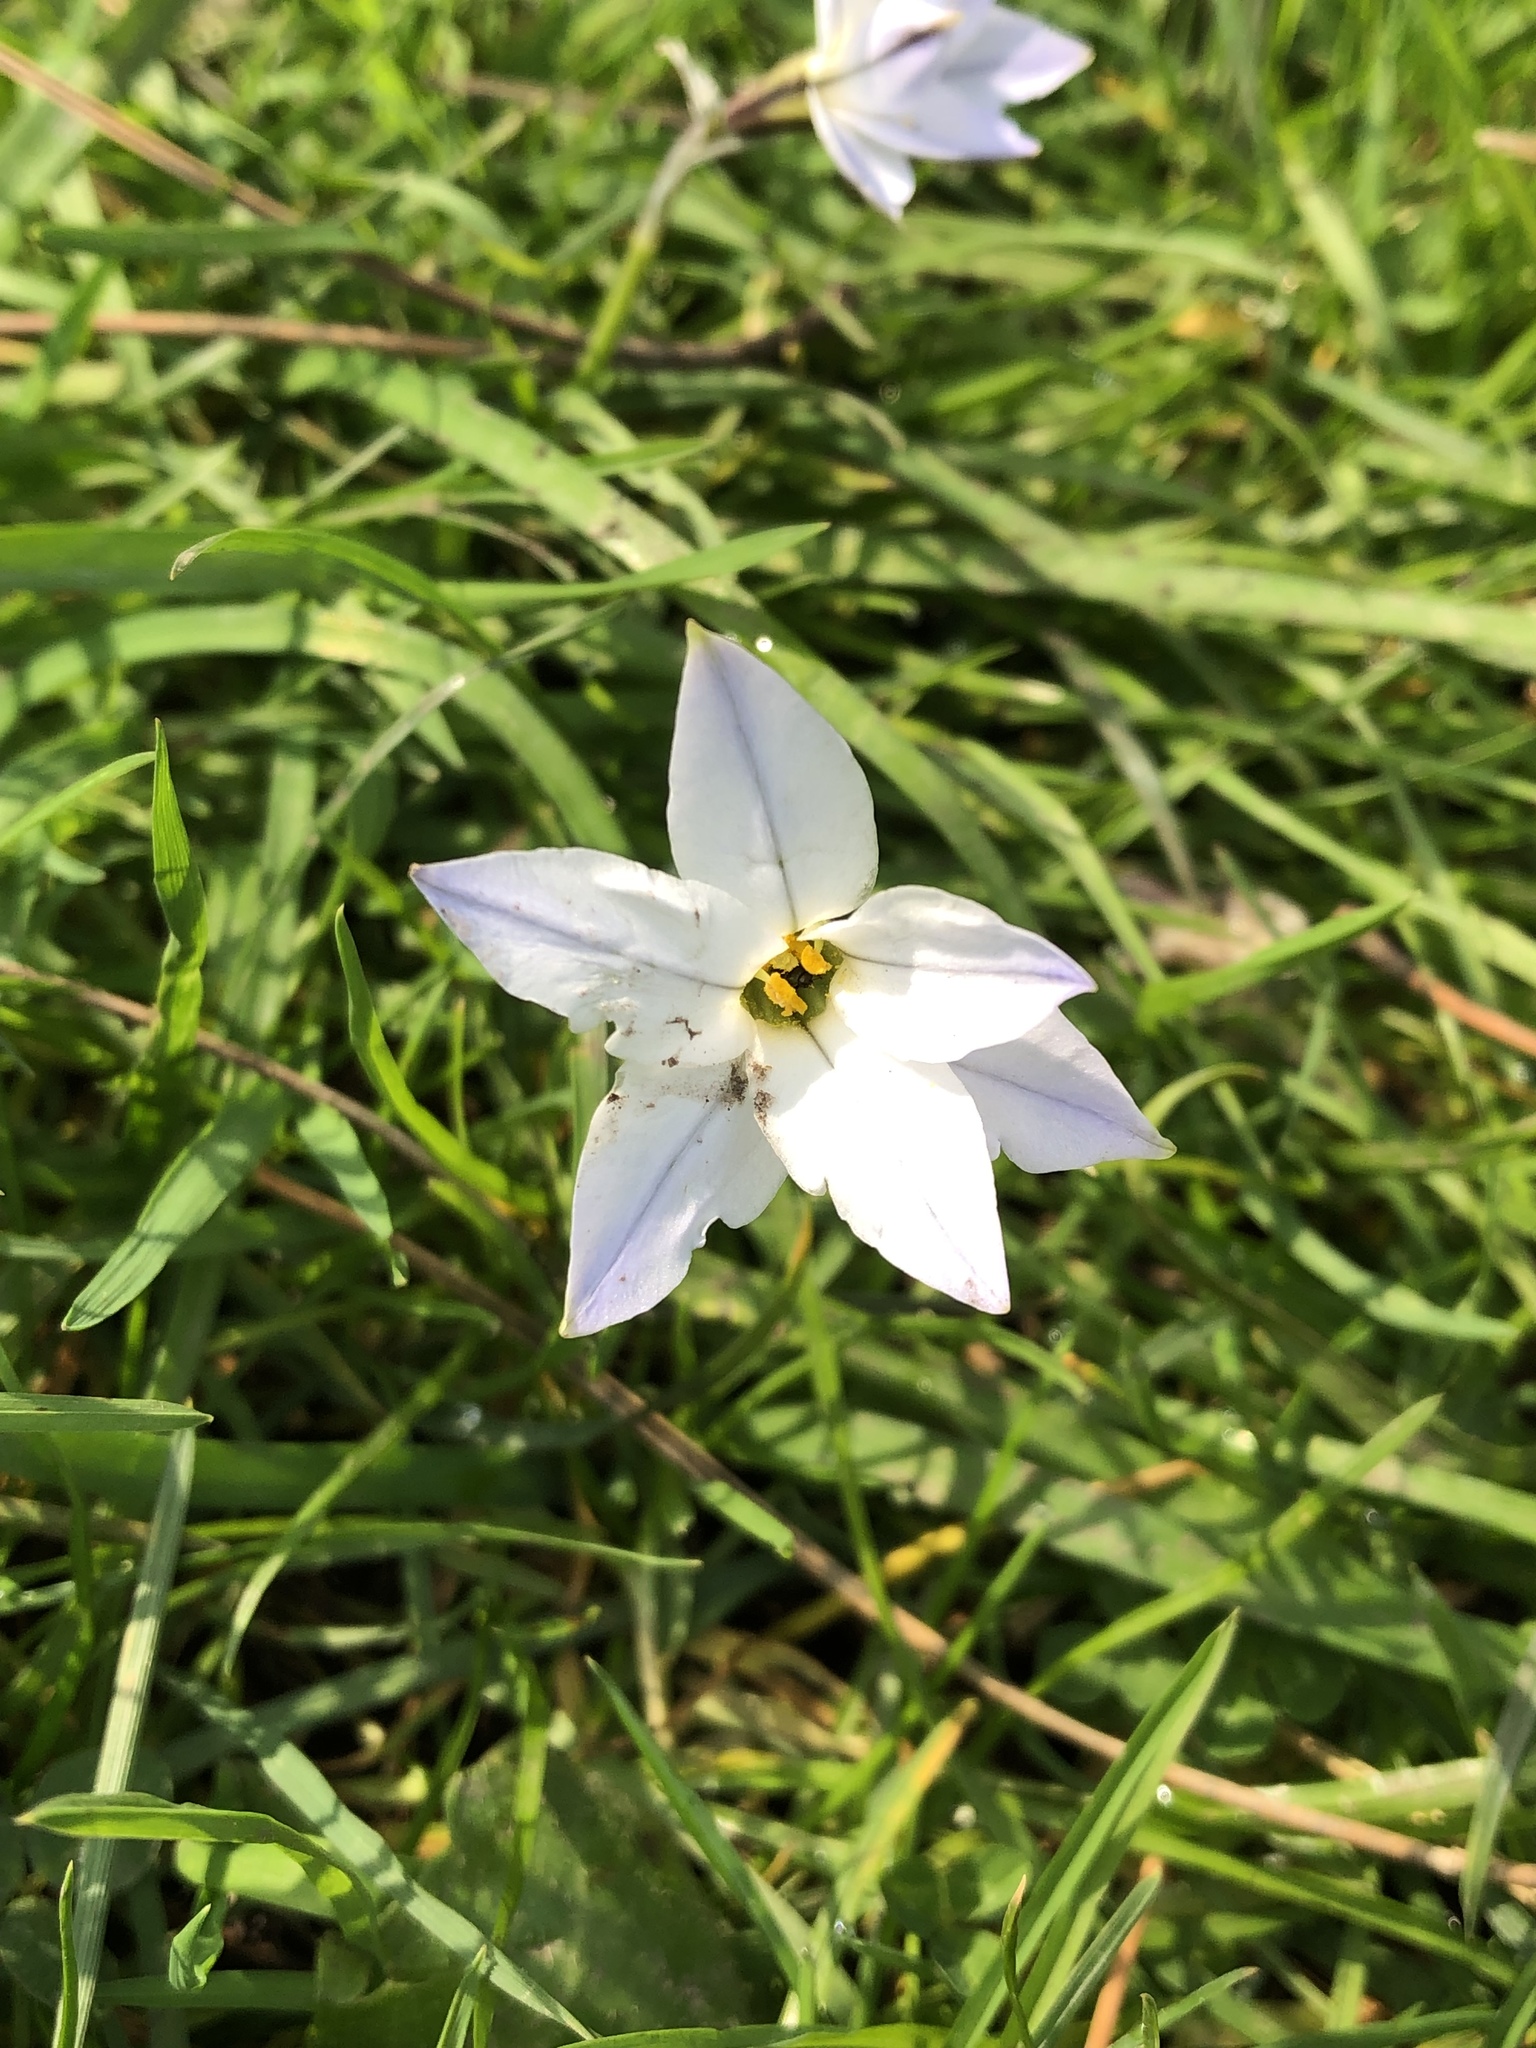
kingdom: Plantae
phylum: Tracheophyta
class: Liliopsida
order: Asparagales
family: Amaryllidaceae
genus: Ipheion
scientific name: Ipheion uniflorum
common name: Spring starflower
